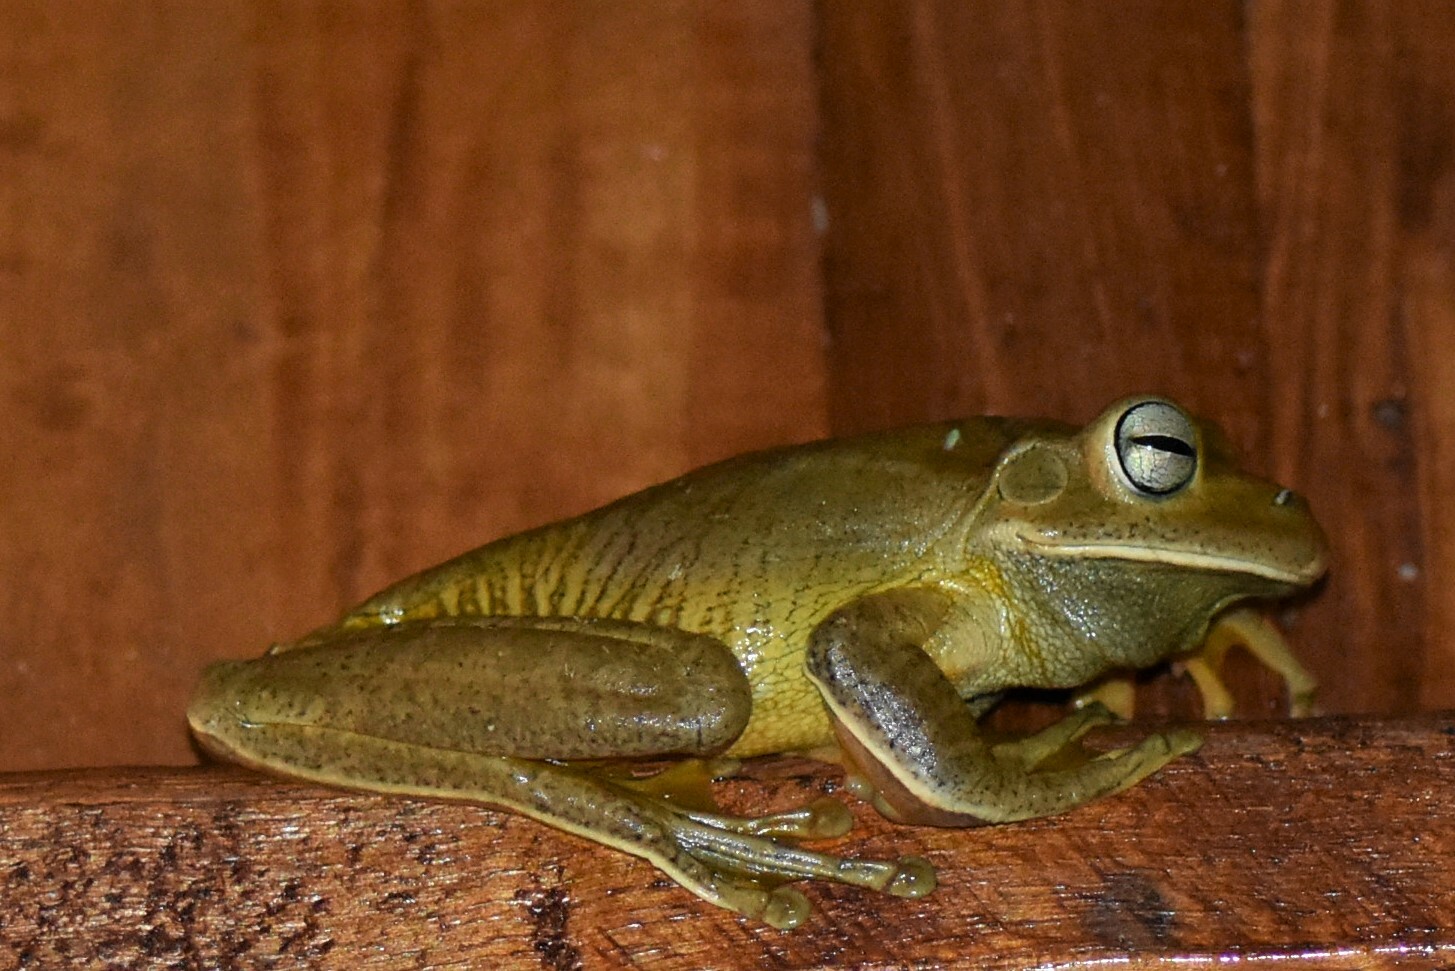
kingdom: Animalia
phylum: Chordata
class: Amphibia
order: Anura
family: Hylidae
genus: Boana
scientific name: Boana faber
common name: Blacksmith tree frog
